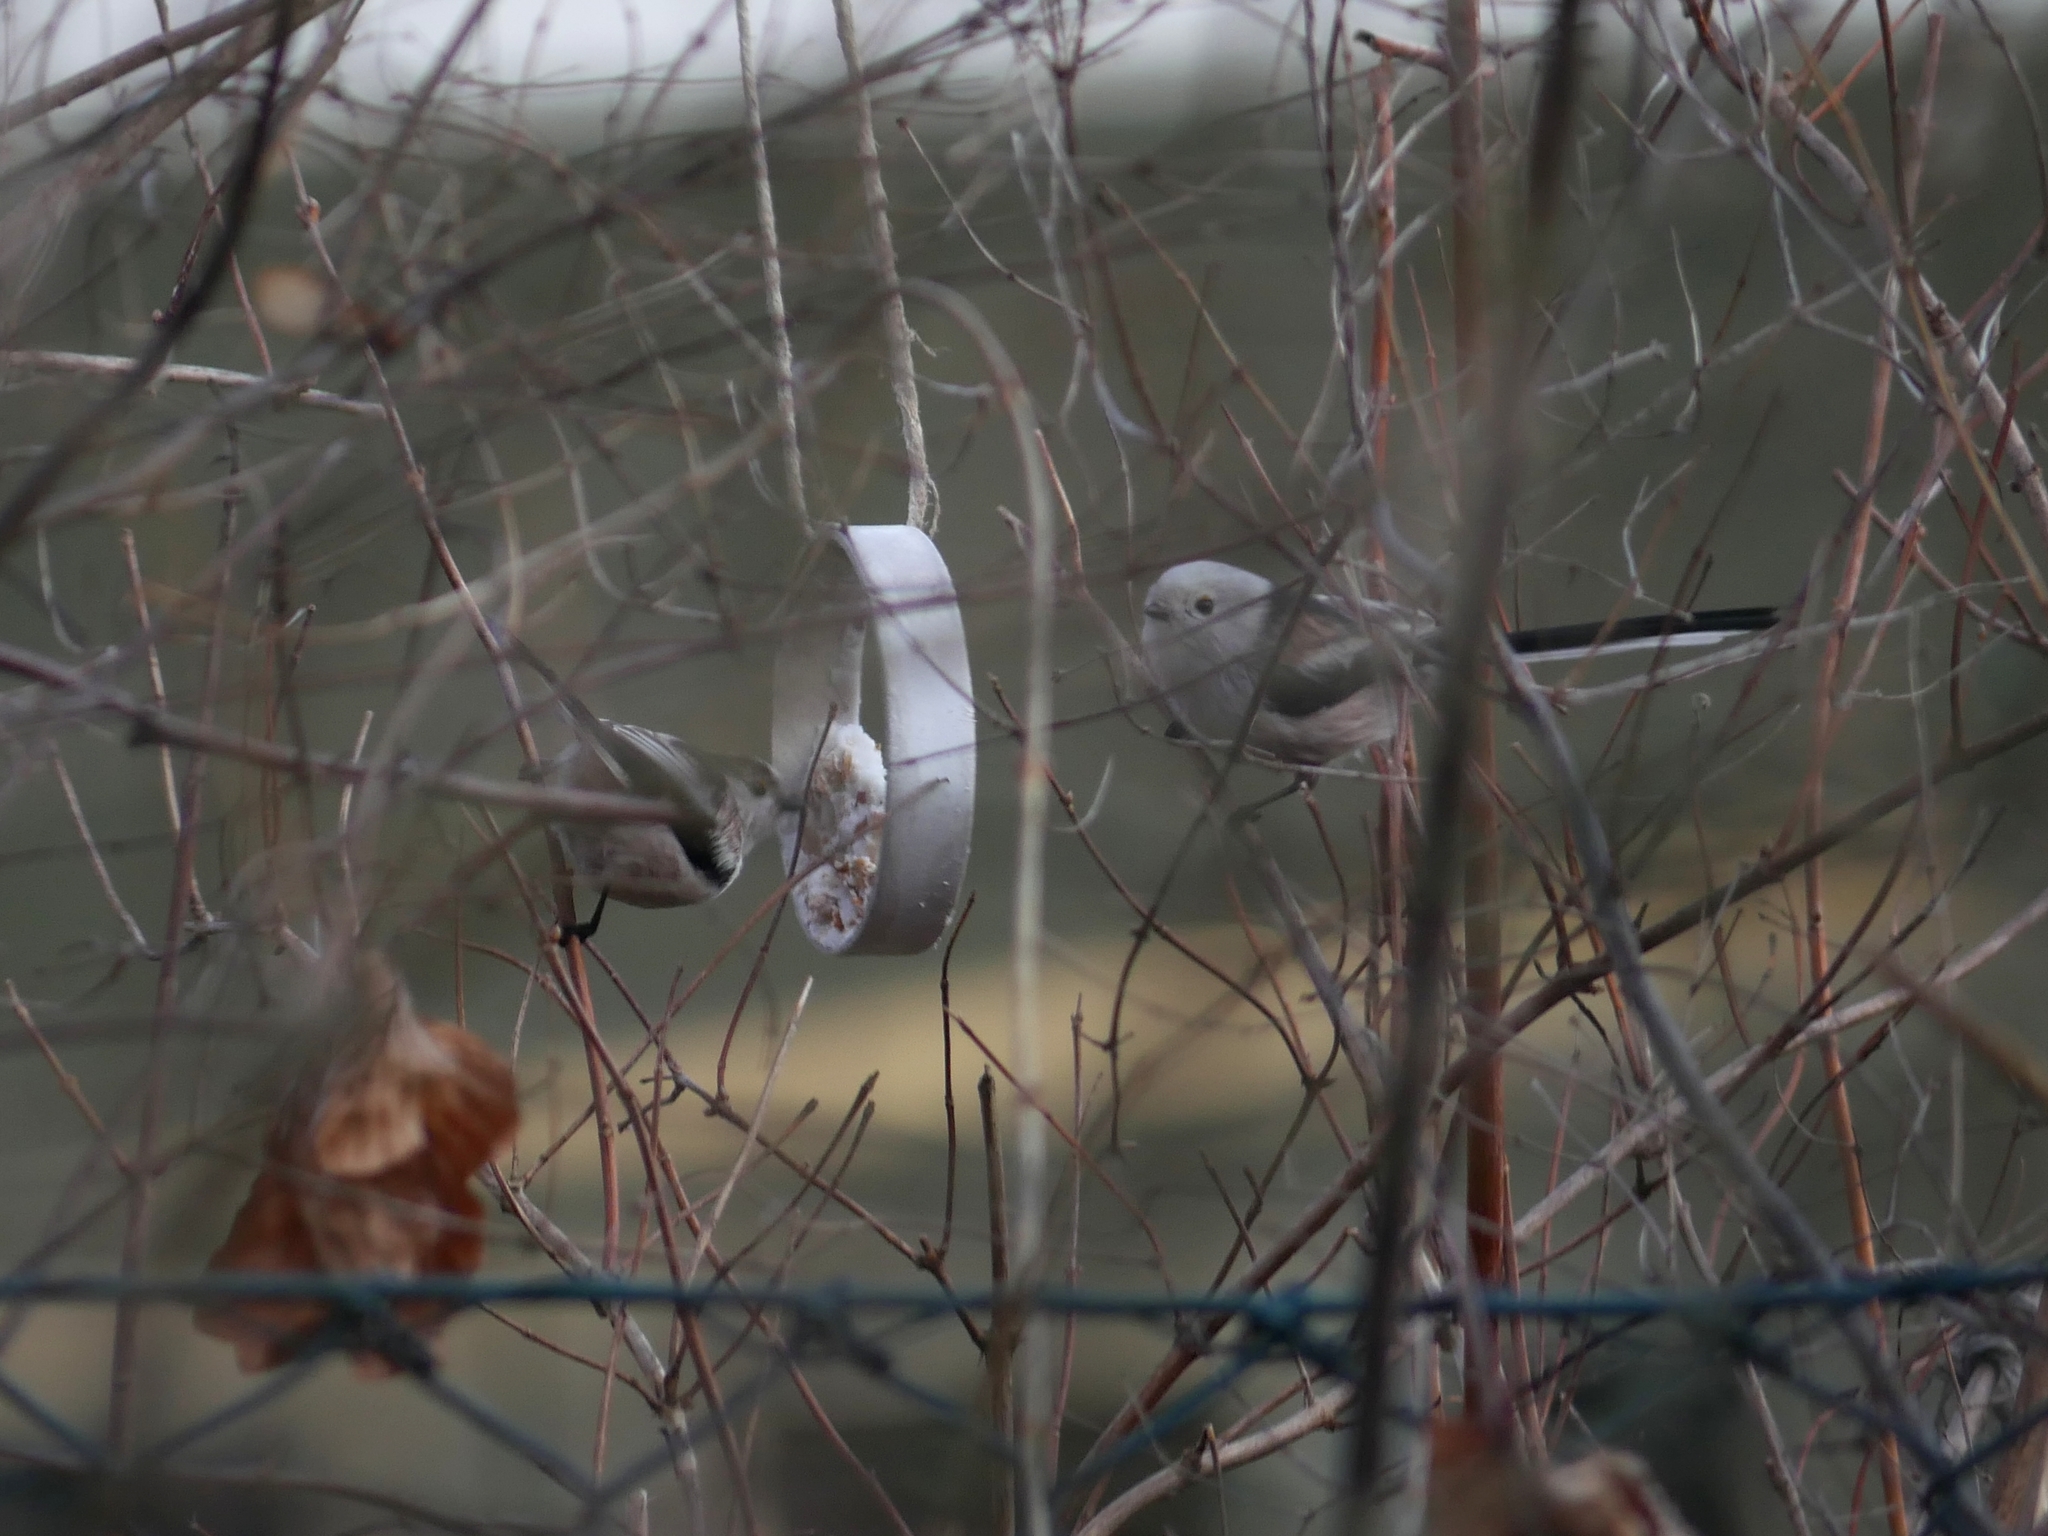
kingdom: Animalia
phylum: Chordata
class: Aves
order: Passeriformes
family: Aegithalidae
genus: Aegithalos
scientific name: Aegithalos caudatus
